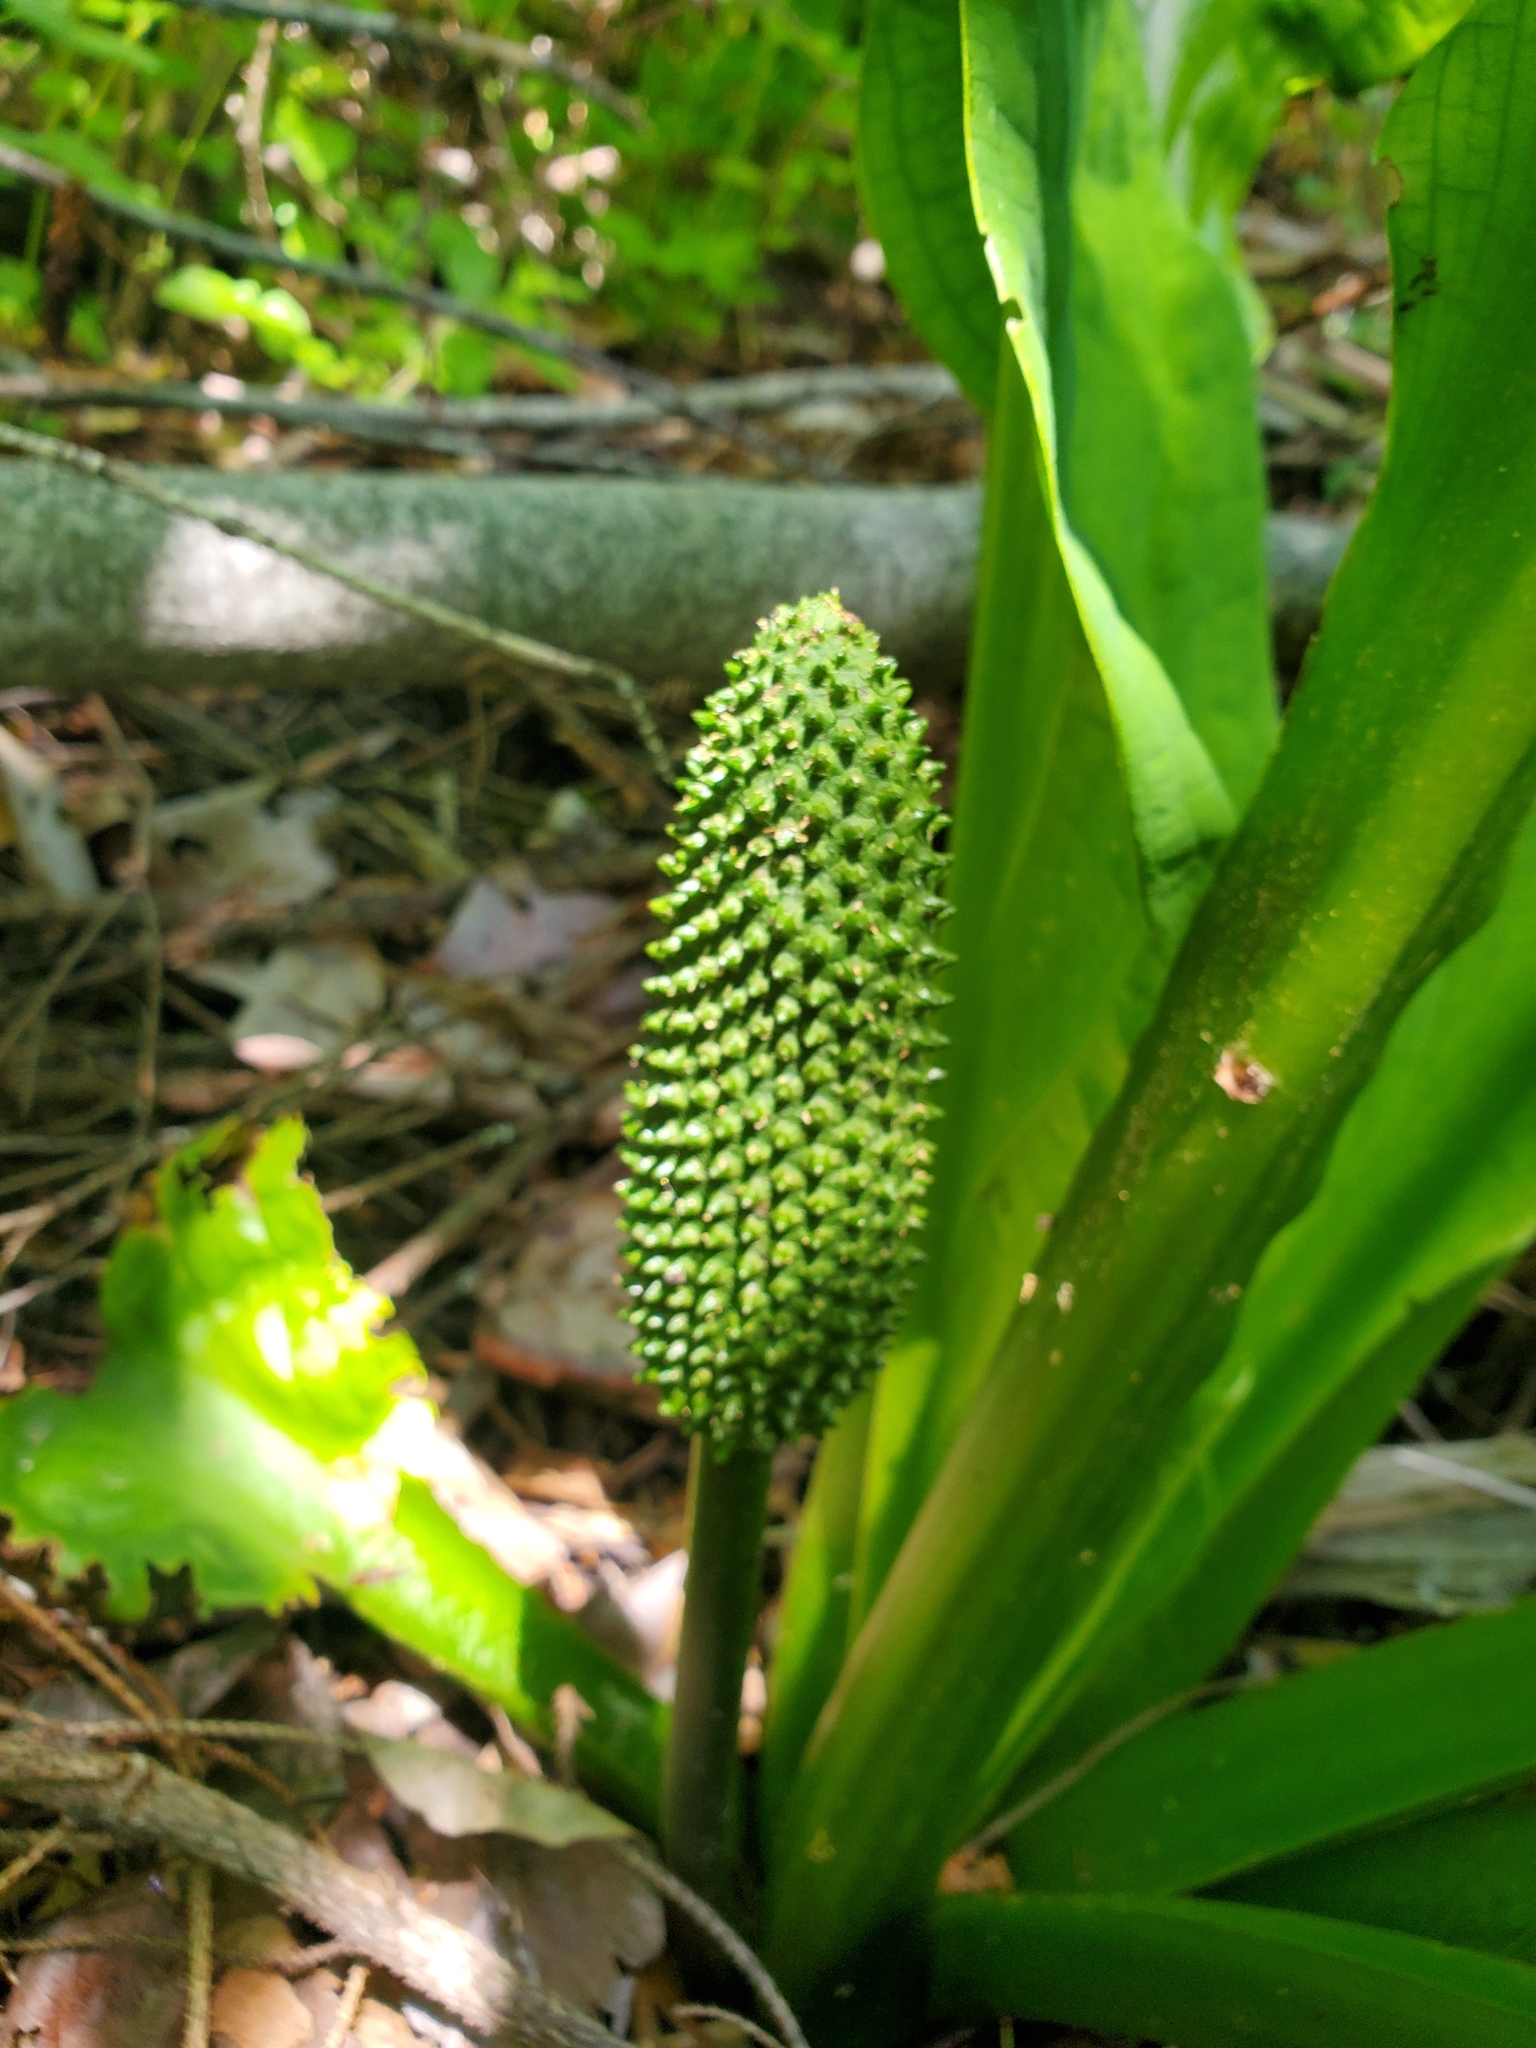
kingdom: Plantae
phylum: Tracheophyta
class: Liliopsida
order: Alismatales
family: Araceae
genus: Lysichiton
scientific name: Lysichiton americanus
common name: American skunk cabbage
